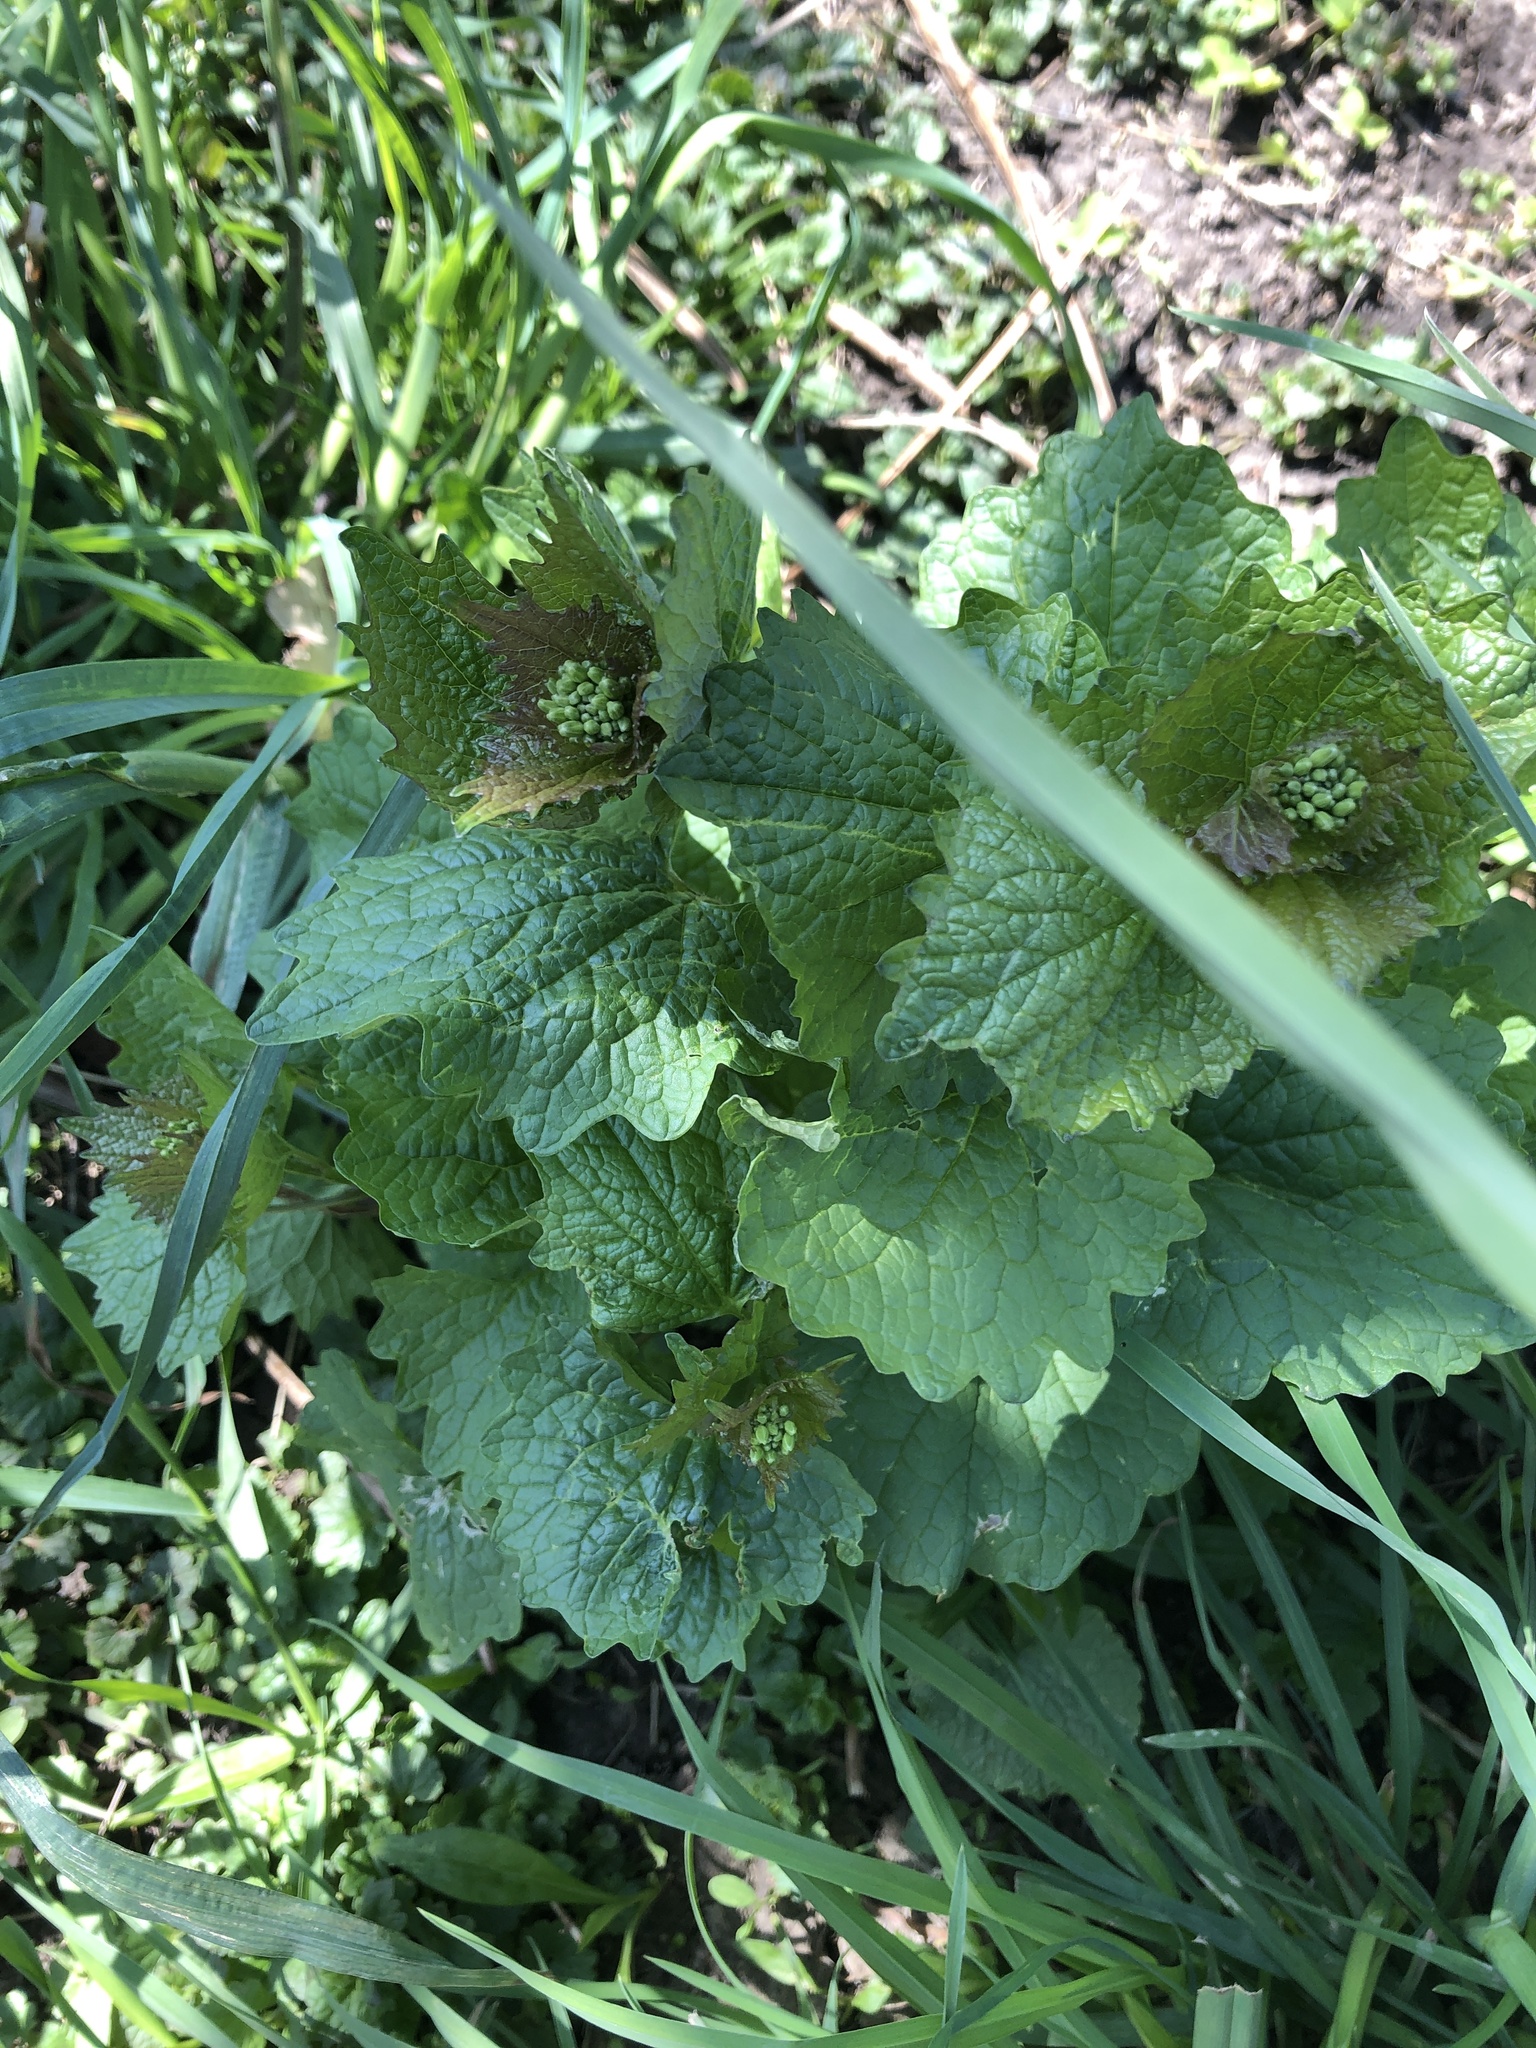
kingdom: Plantae
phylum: Tracheophyta
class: Magnoliopsida
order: Brassicales
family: Brassicaceae
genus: Alliaria
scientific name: Alliaria petiolata
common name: Garlic mustard
